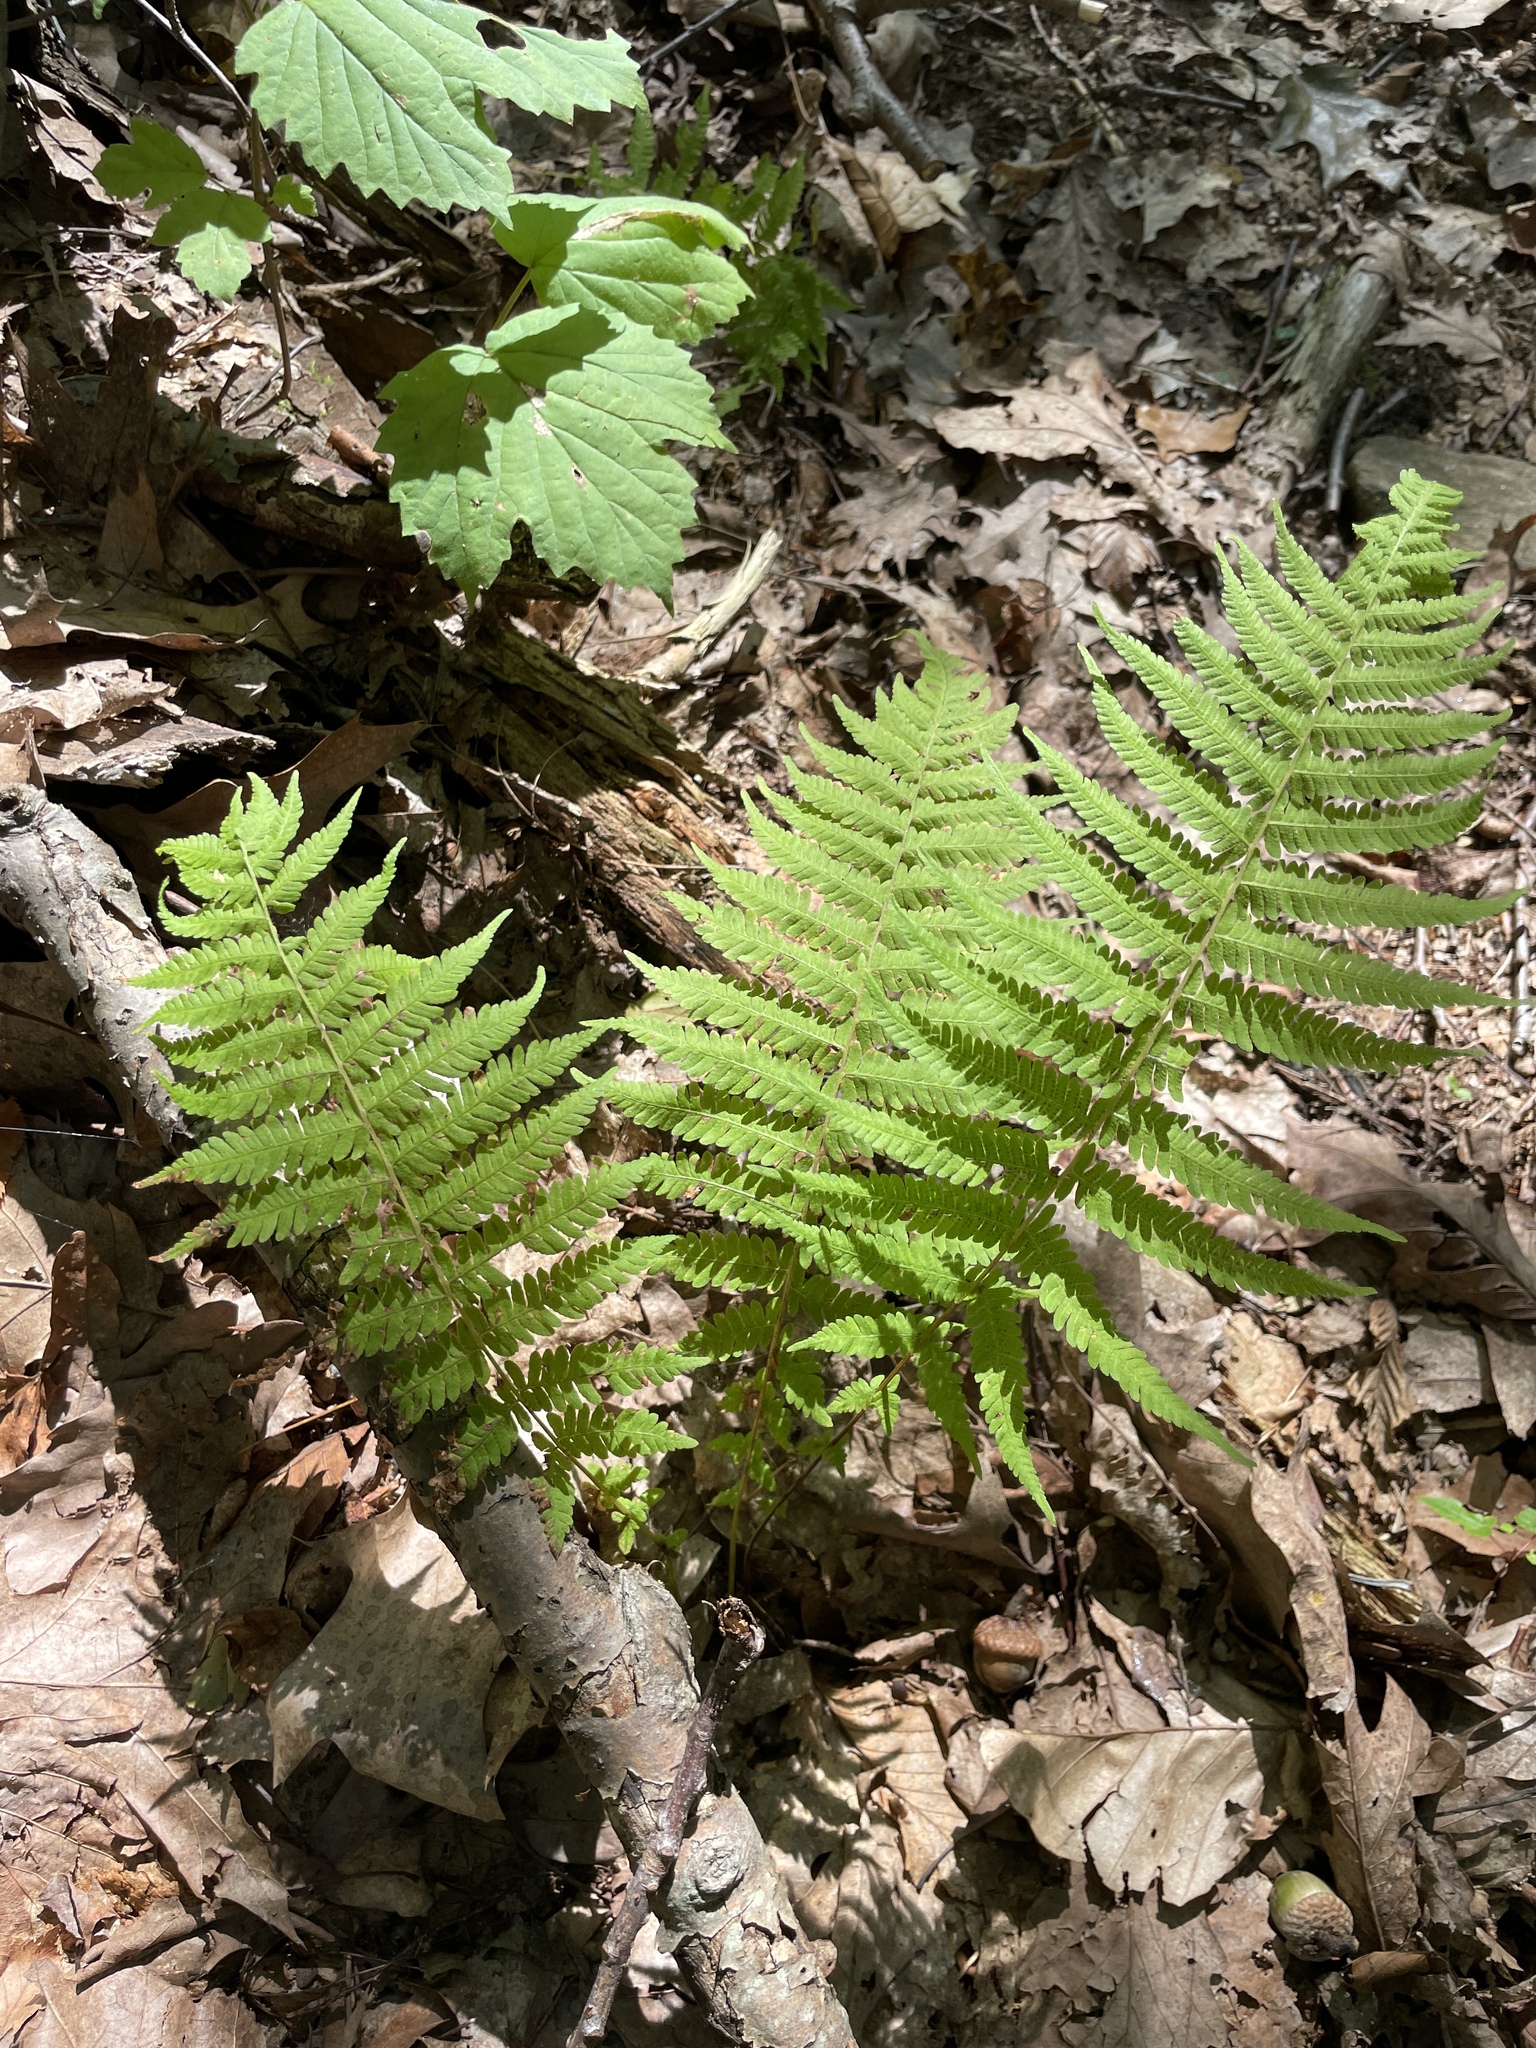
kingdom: Plantae
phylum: Tracheophyta
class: Polypodiopsida
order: Polypodiales
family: Thelypteridaceae
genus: Amauropelta
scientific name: Amauropelta noveboracensis
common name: New york fern
